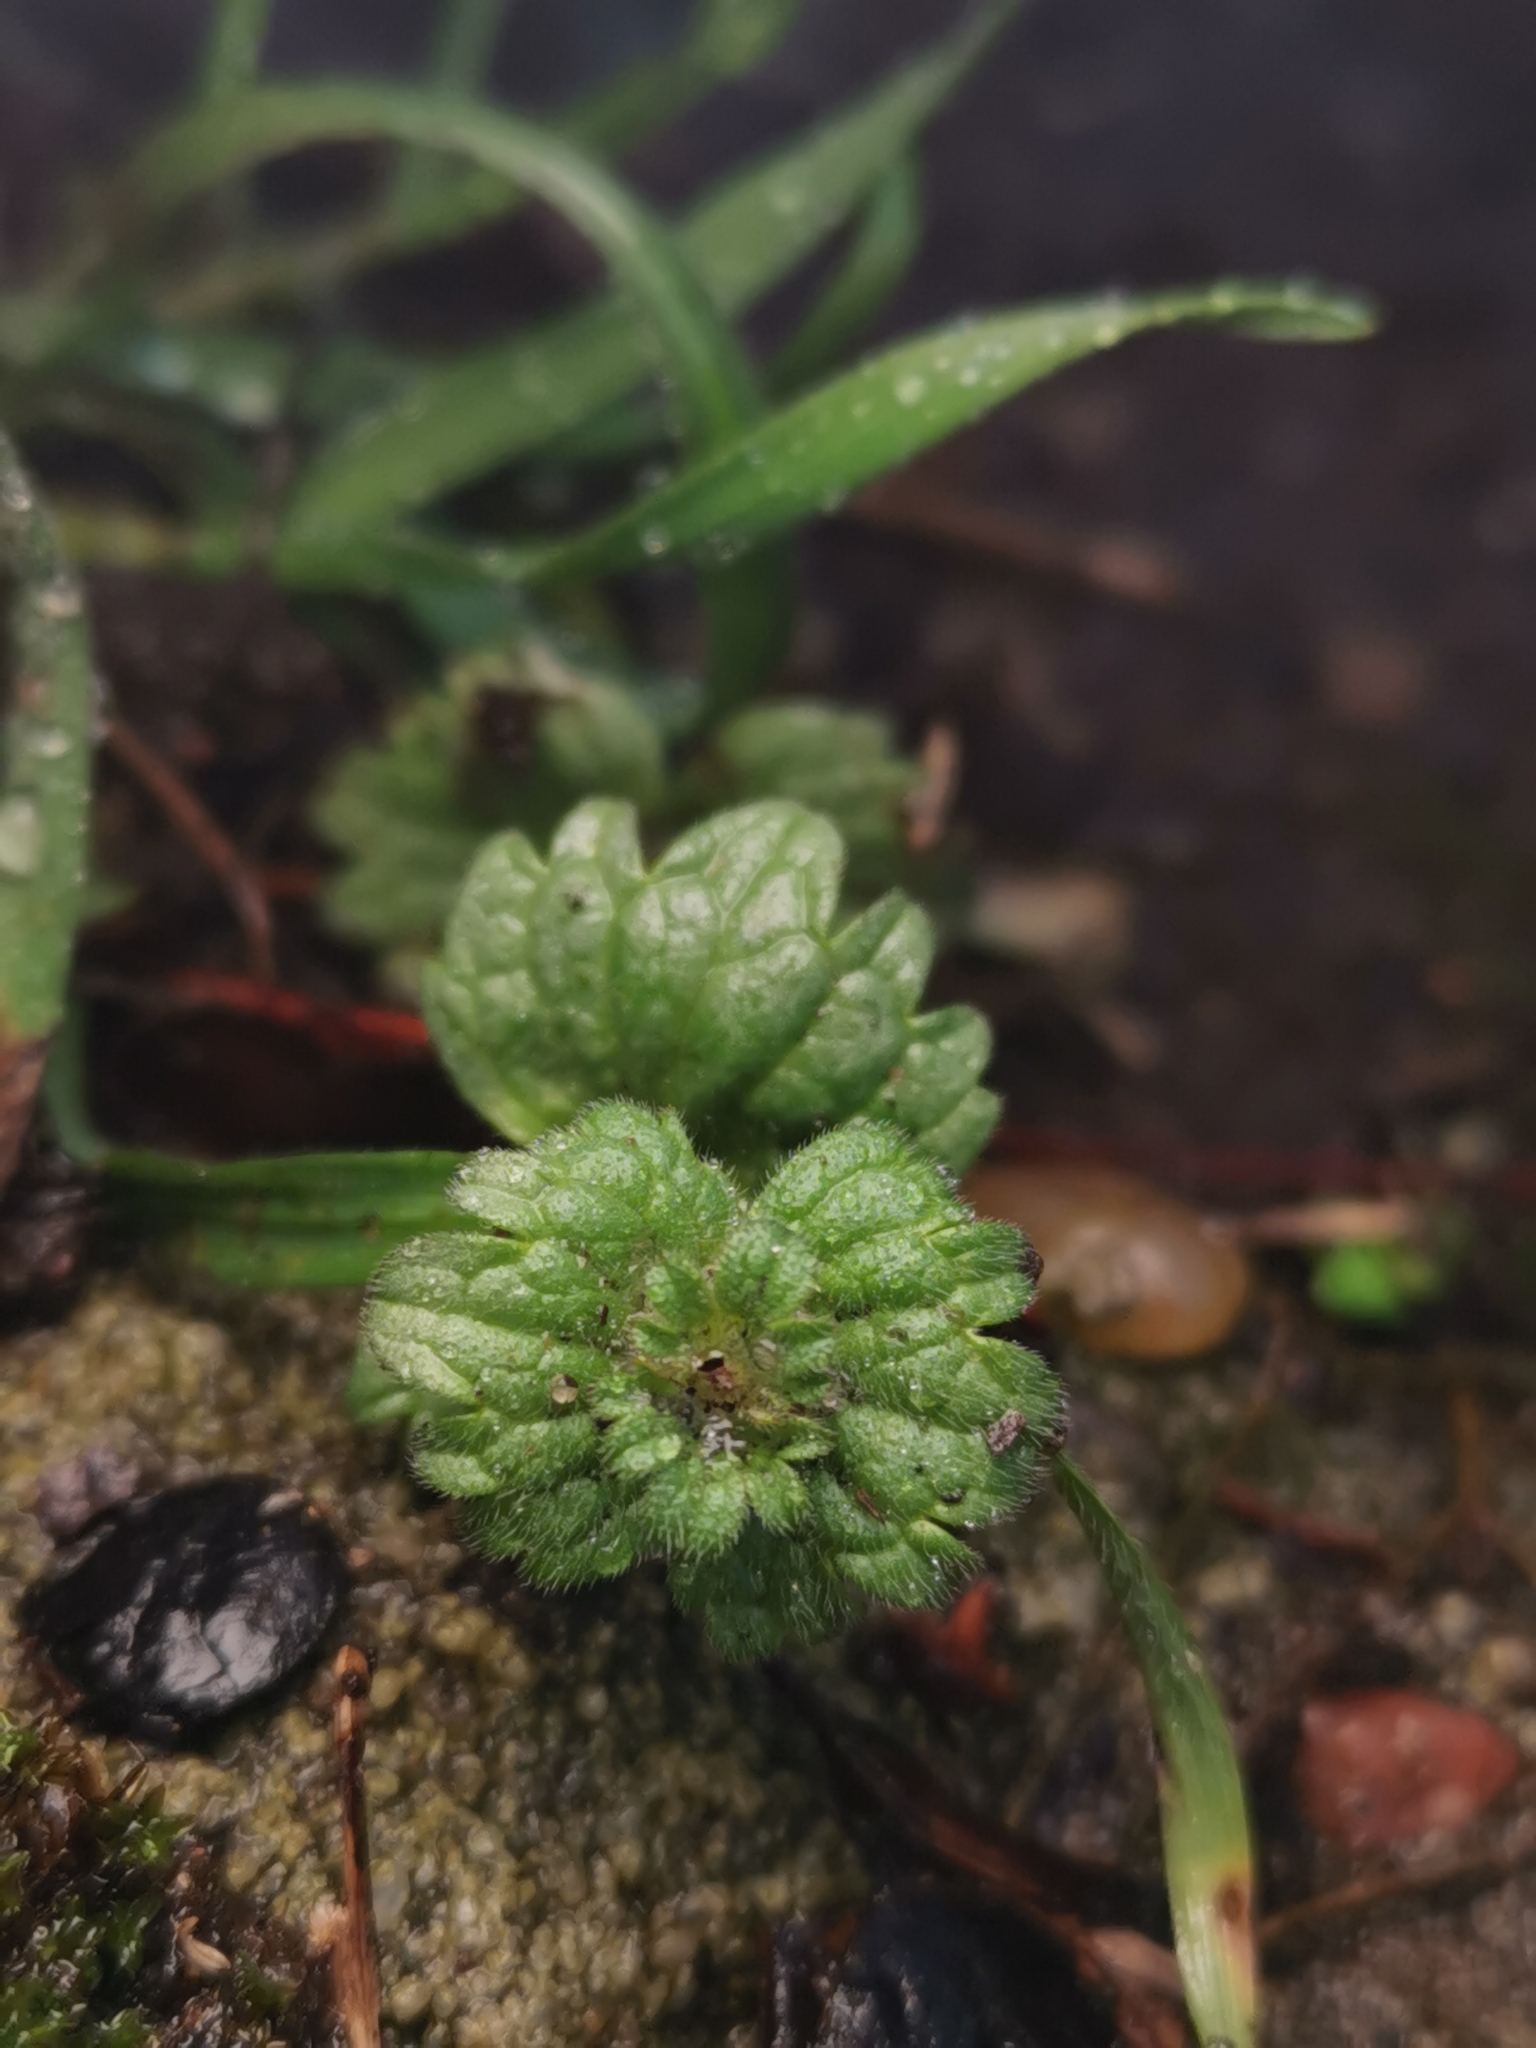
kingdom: Plantae
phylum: Tracheophyta
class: Magnoliopsida
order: Lamiales
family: Lamiaceae
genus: Lamium
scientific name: Lamium amplexicaule
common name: Henbit dead-nettle
